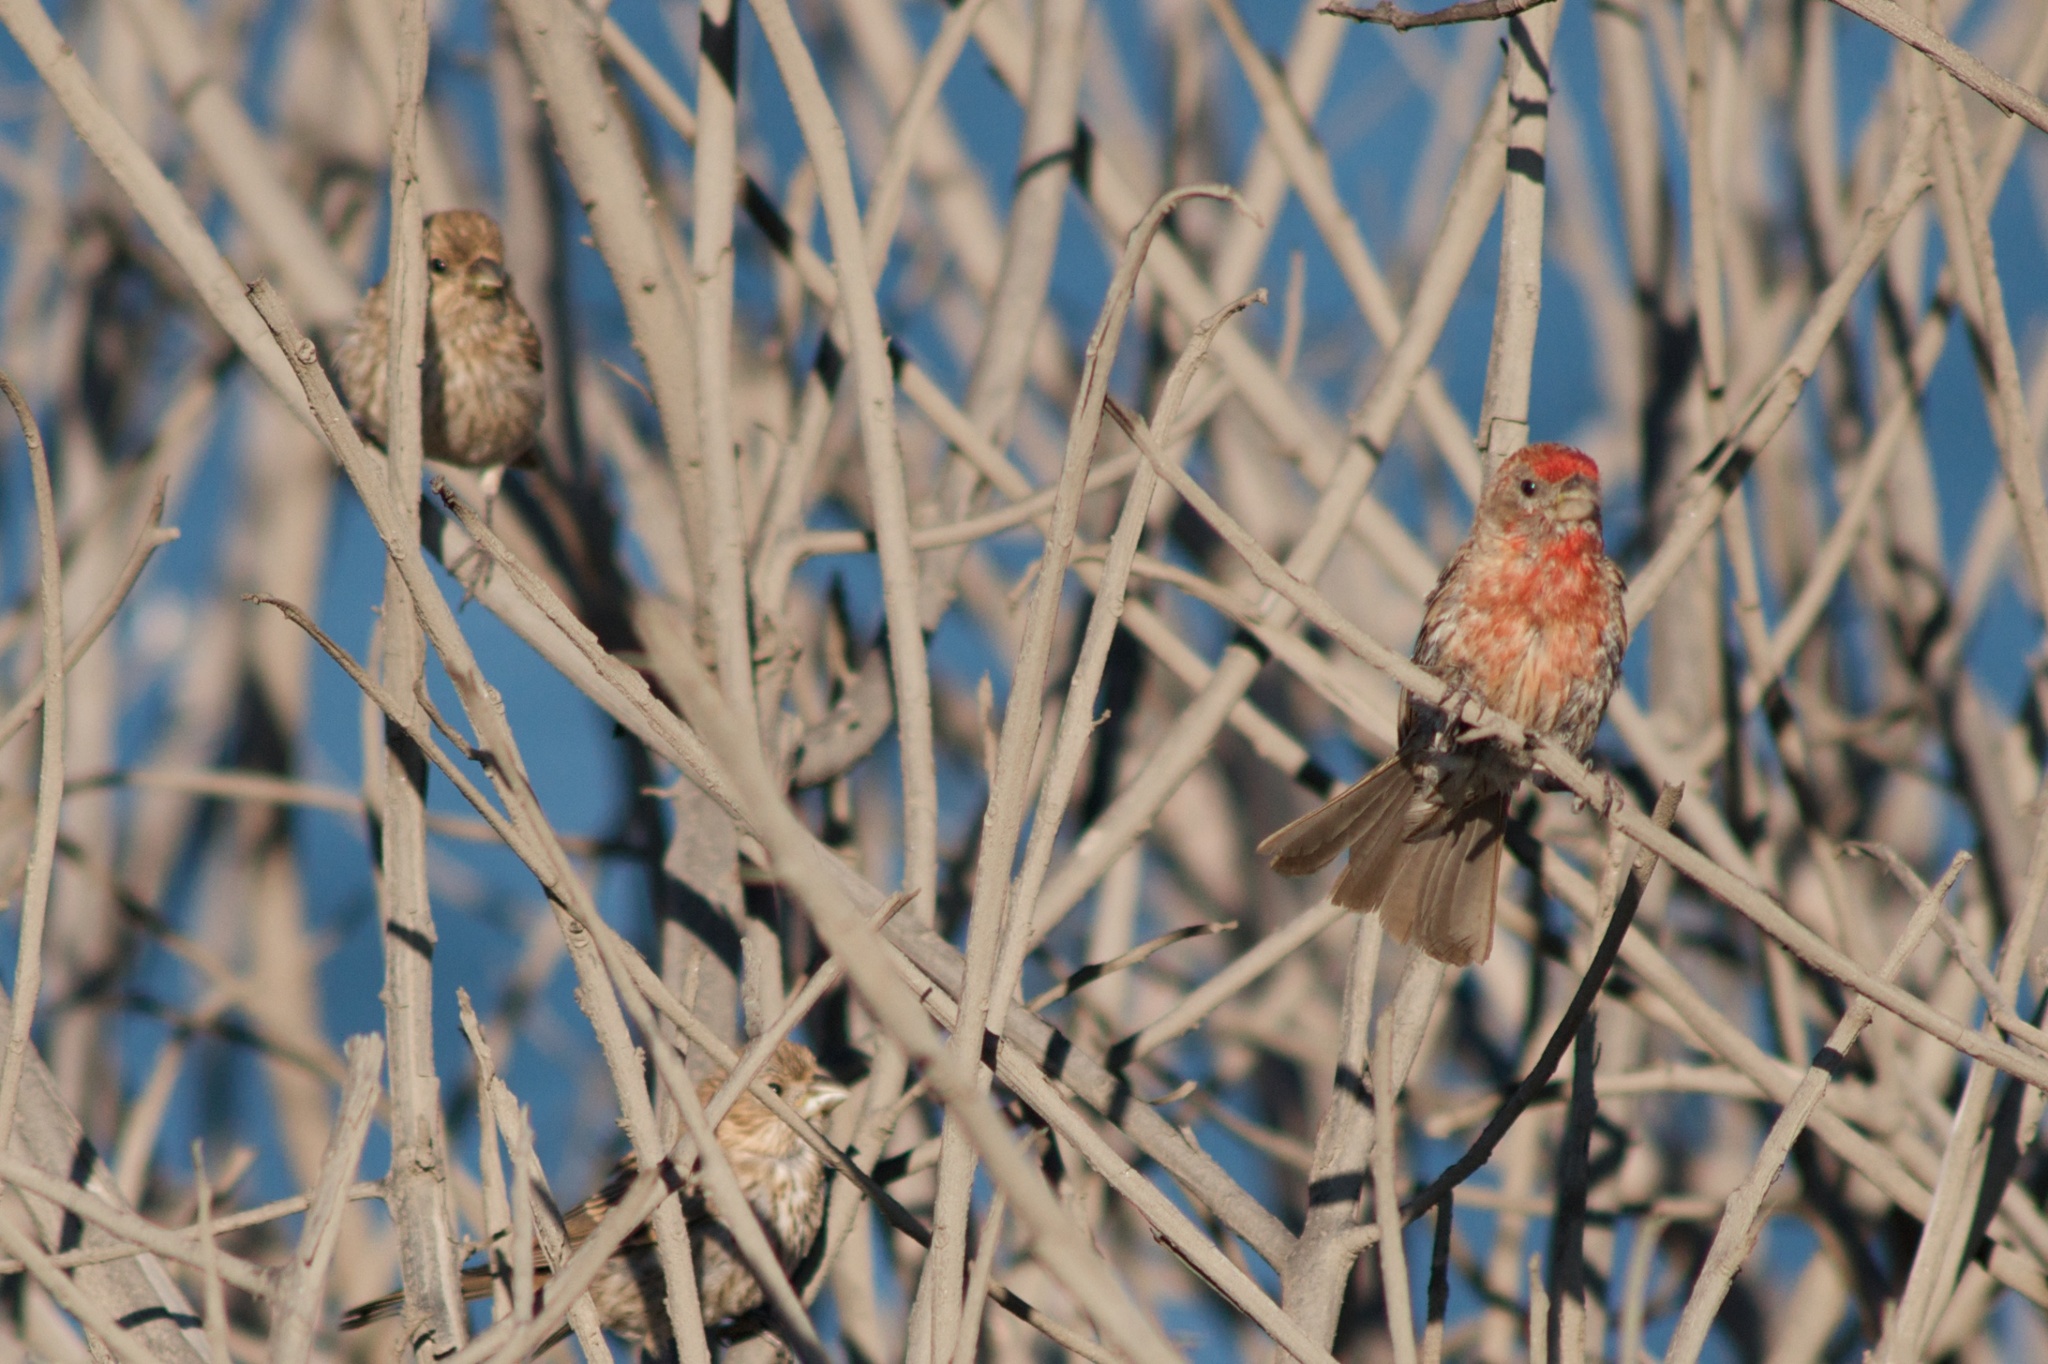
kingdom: Animalia
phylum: Chordata
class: Aves
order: Passeriformes
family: Fringillidae
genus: Haemorhous
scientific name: Haemorhous mexicanus
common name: House finch
